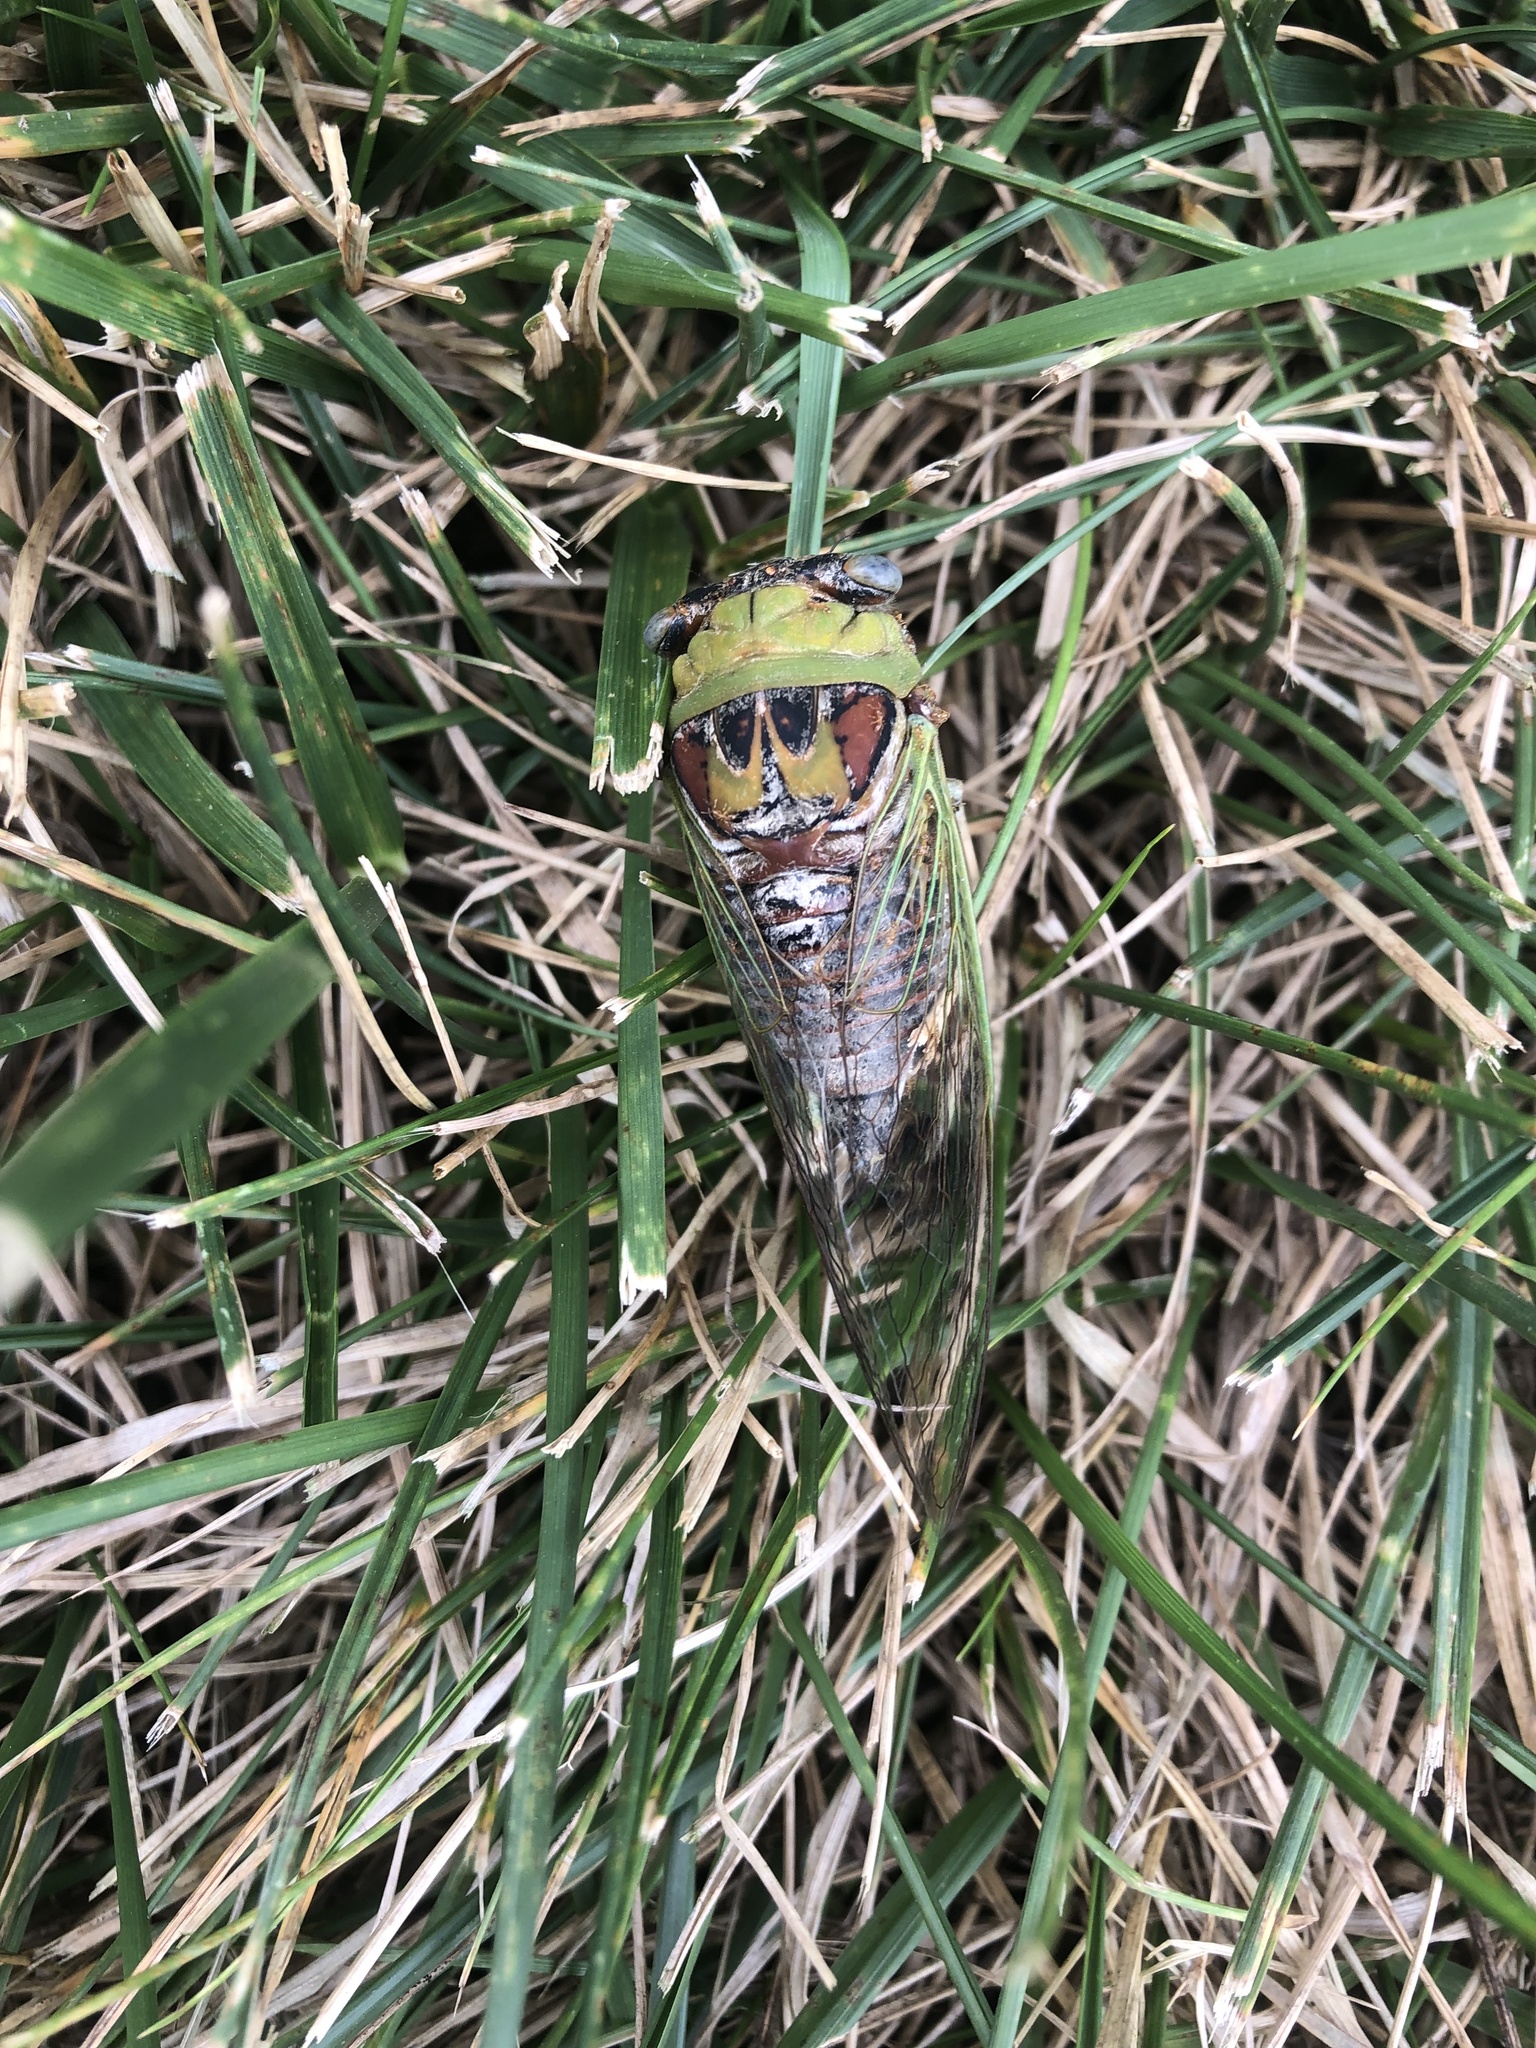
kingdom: Animalia
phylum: Arthropoda
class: Insecta
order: Hemiptera
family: Cicadidae
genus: Megatibicen
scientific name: Megatibicen pronotalis
